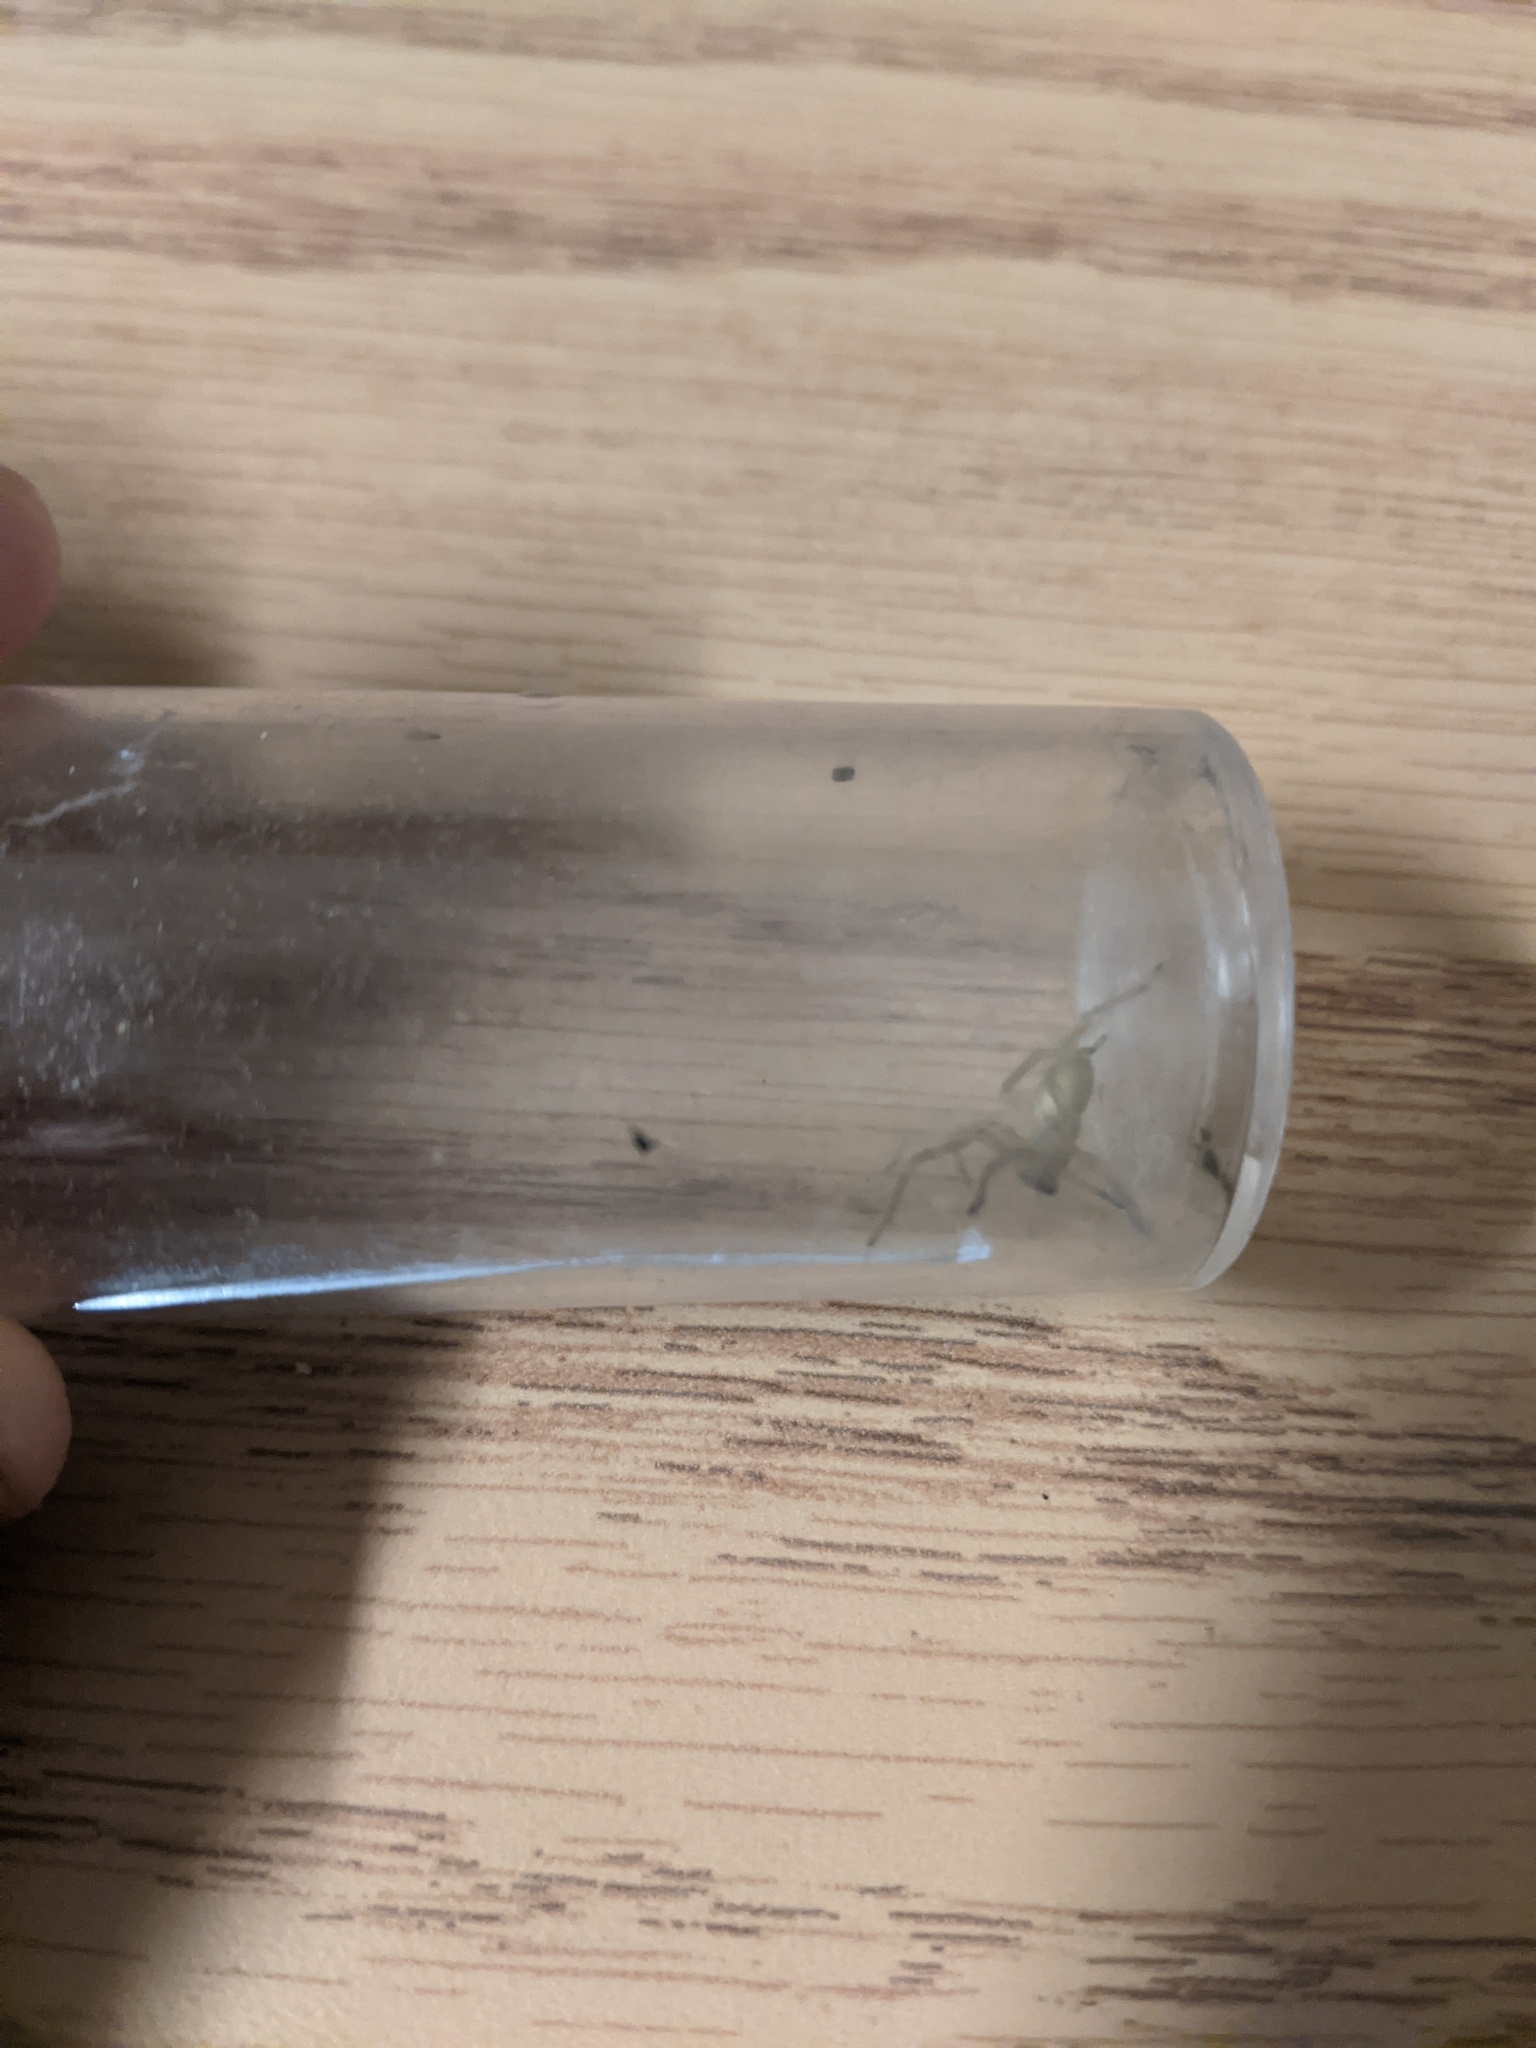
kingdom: Animalia
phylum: Arthropoda
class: Arachnida
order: Araneae
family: Cheiracanthiidae
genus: Cheiracanthium
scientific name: Cheiracanthium mildei
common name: Northern yellow sac spider
